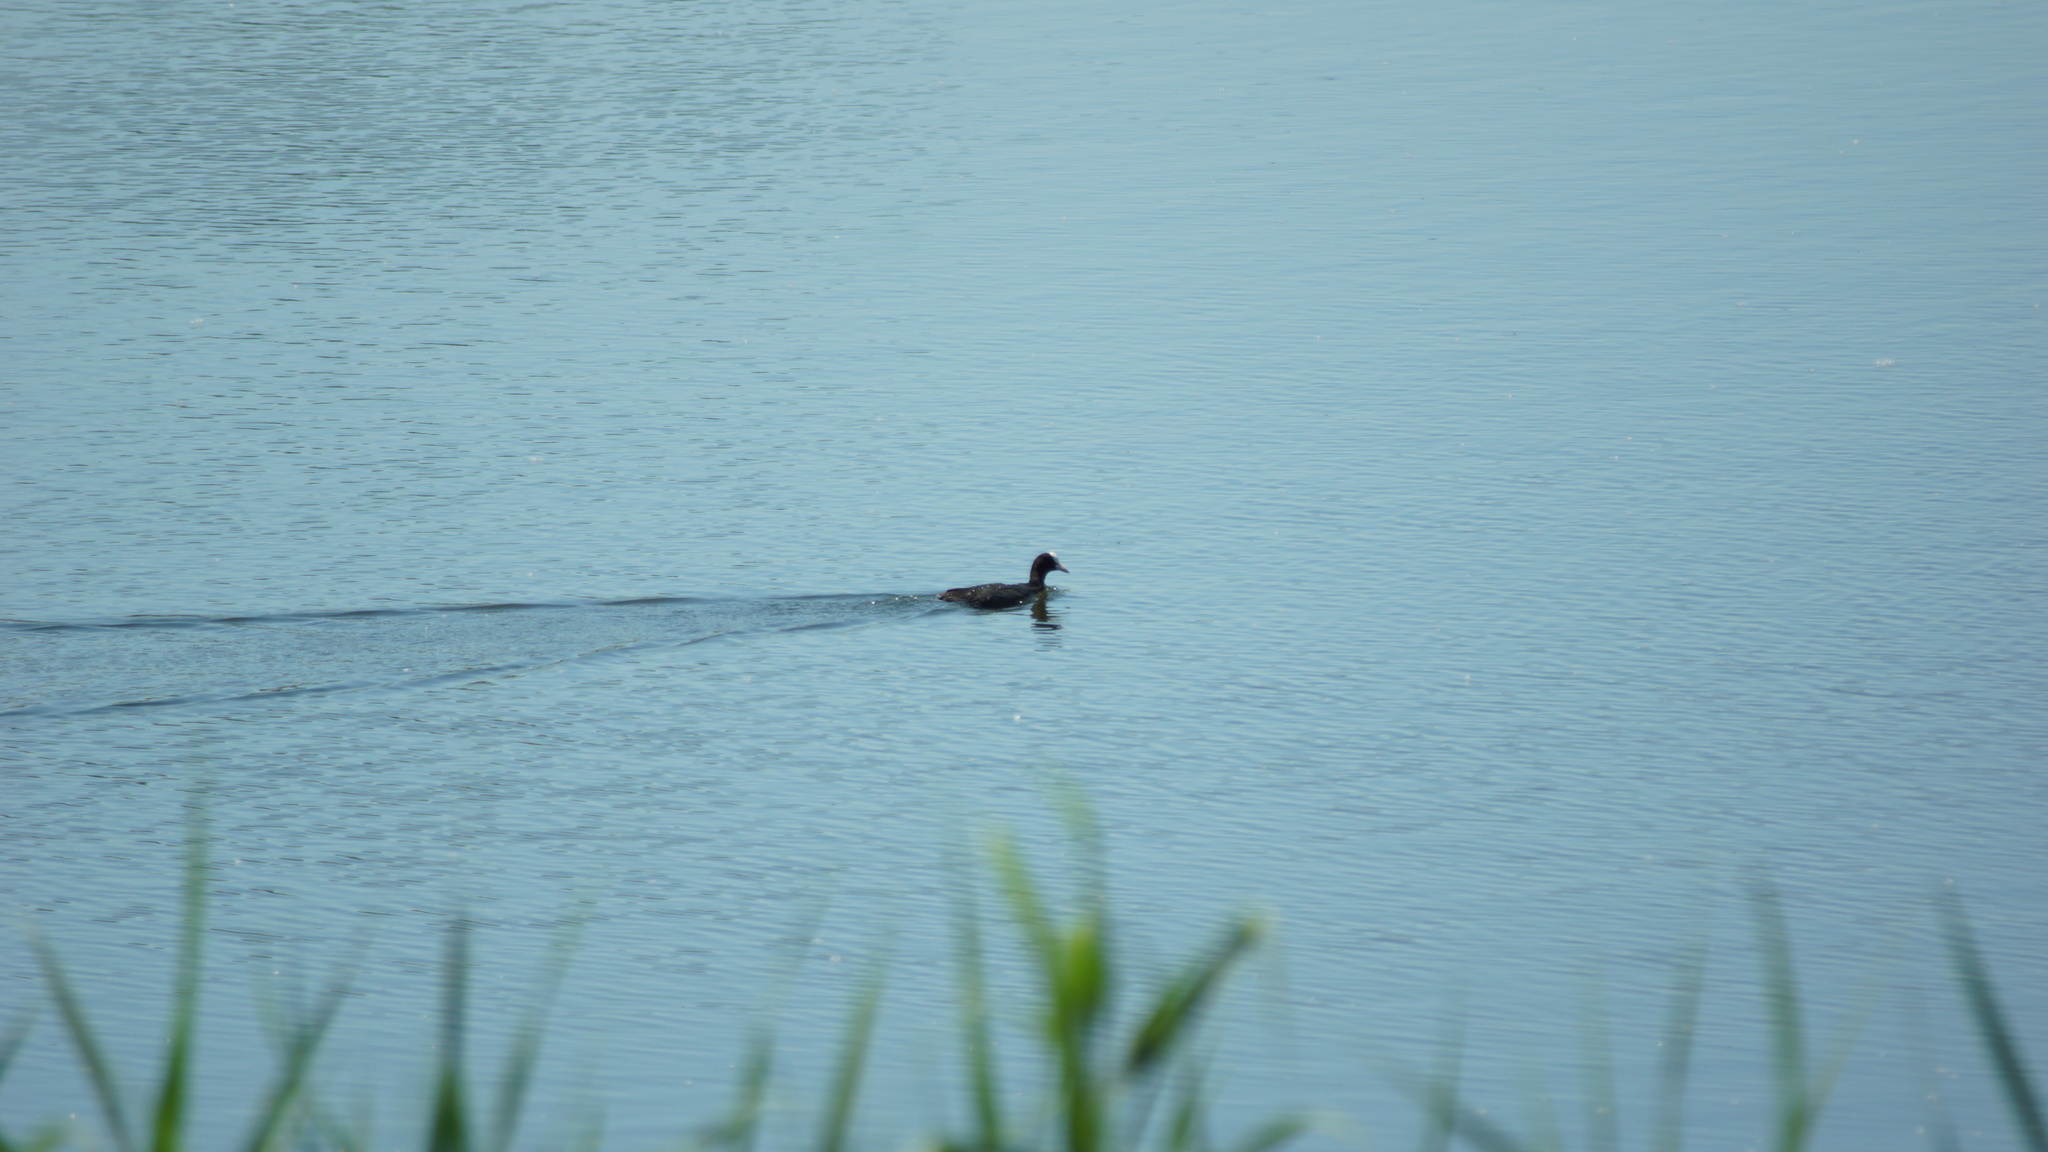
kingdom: Animalia
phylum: Chordata
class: Aves
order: Gruiformes
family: Rallidae
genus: Fulica
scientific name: Fulica atra
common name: Eurasian coot
